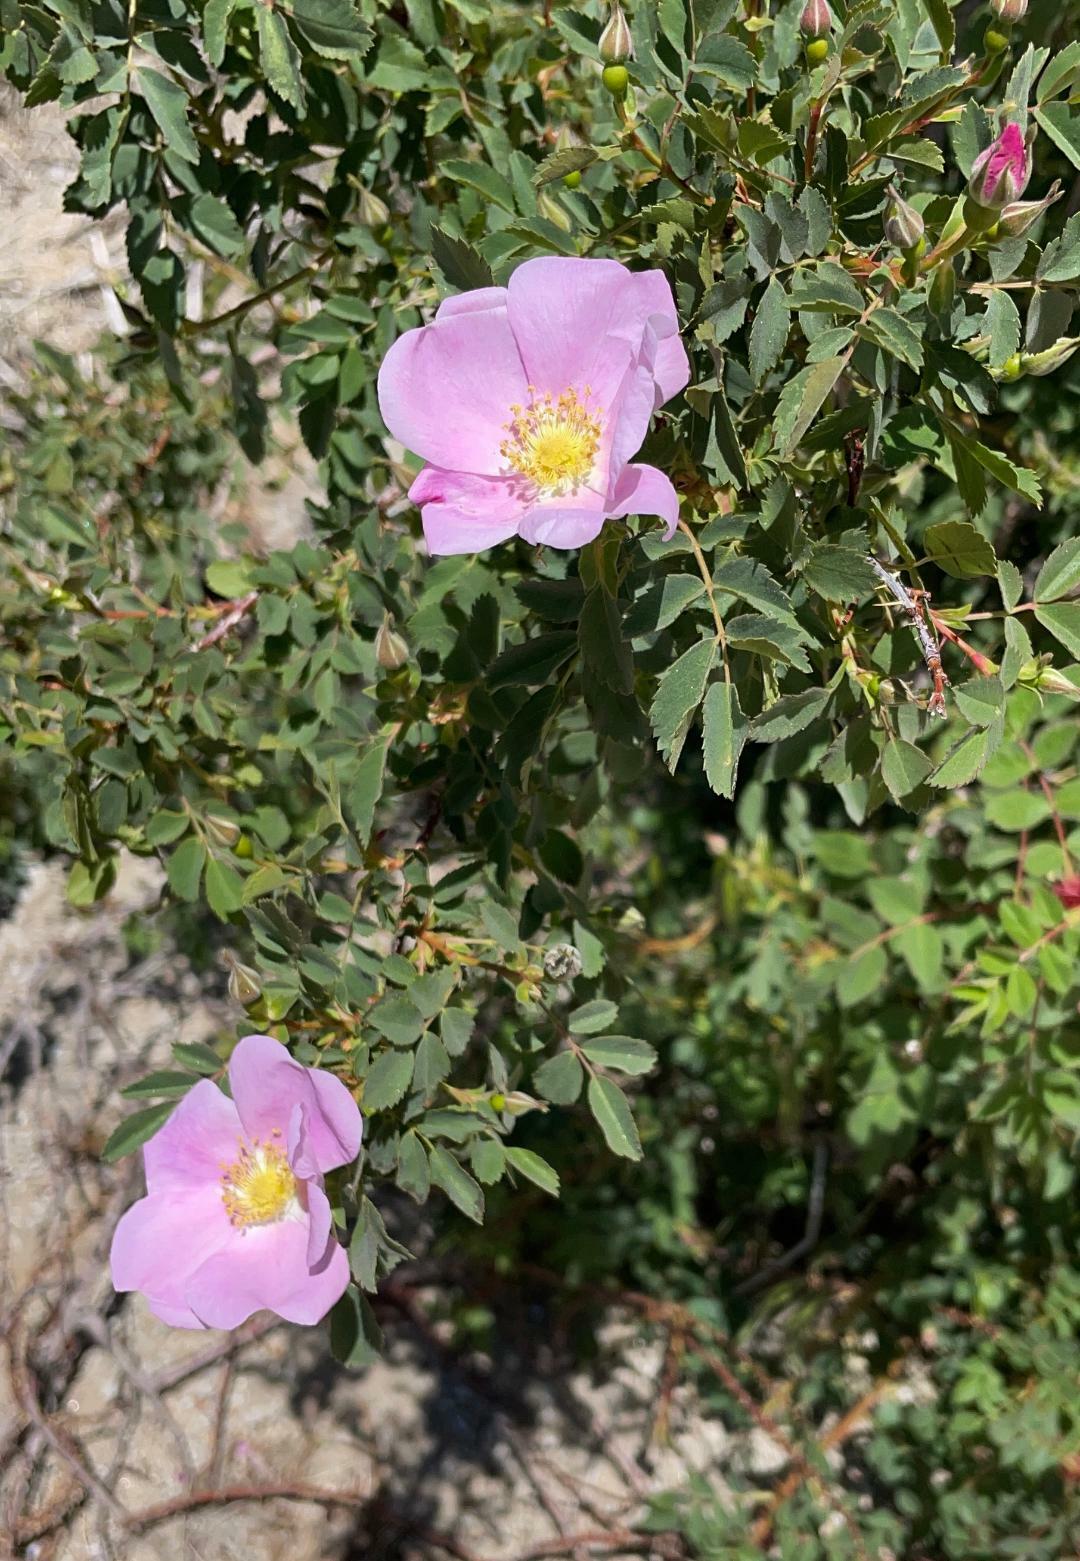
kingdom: Plantae
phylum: Tracheophyta
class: Magnoliopsida
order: Rosales
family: Rosaceae
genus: Rosa
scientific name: Rosa woodsii
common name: Woods's rose
